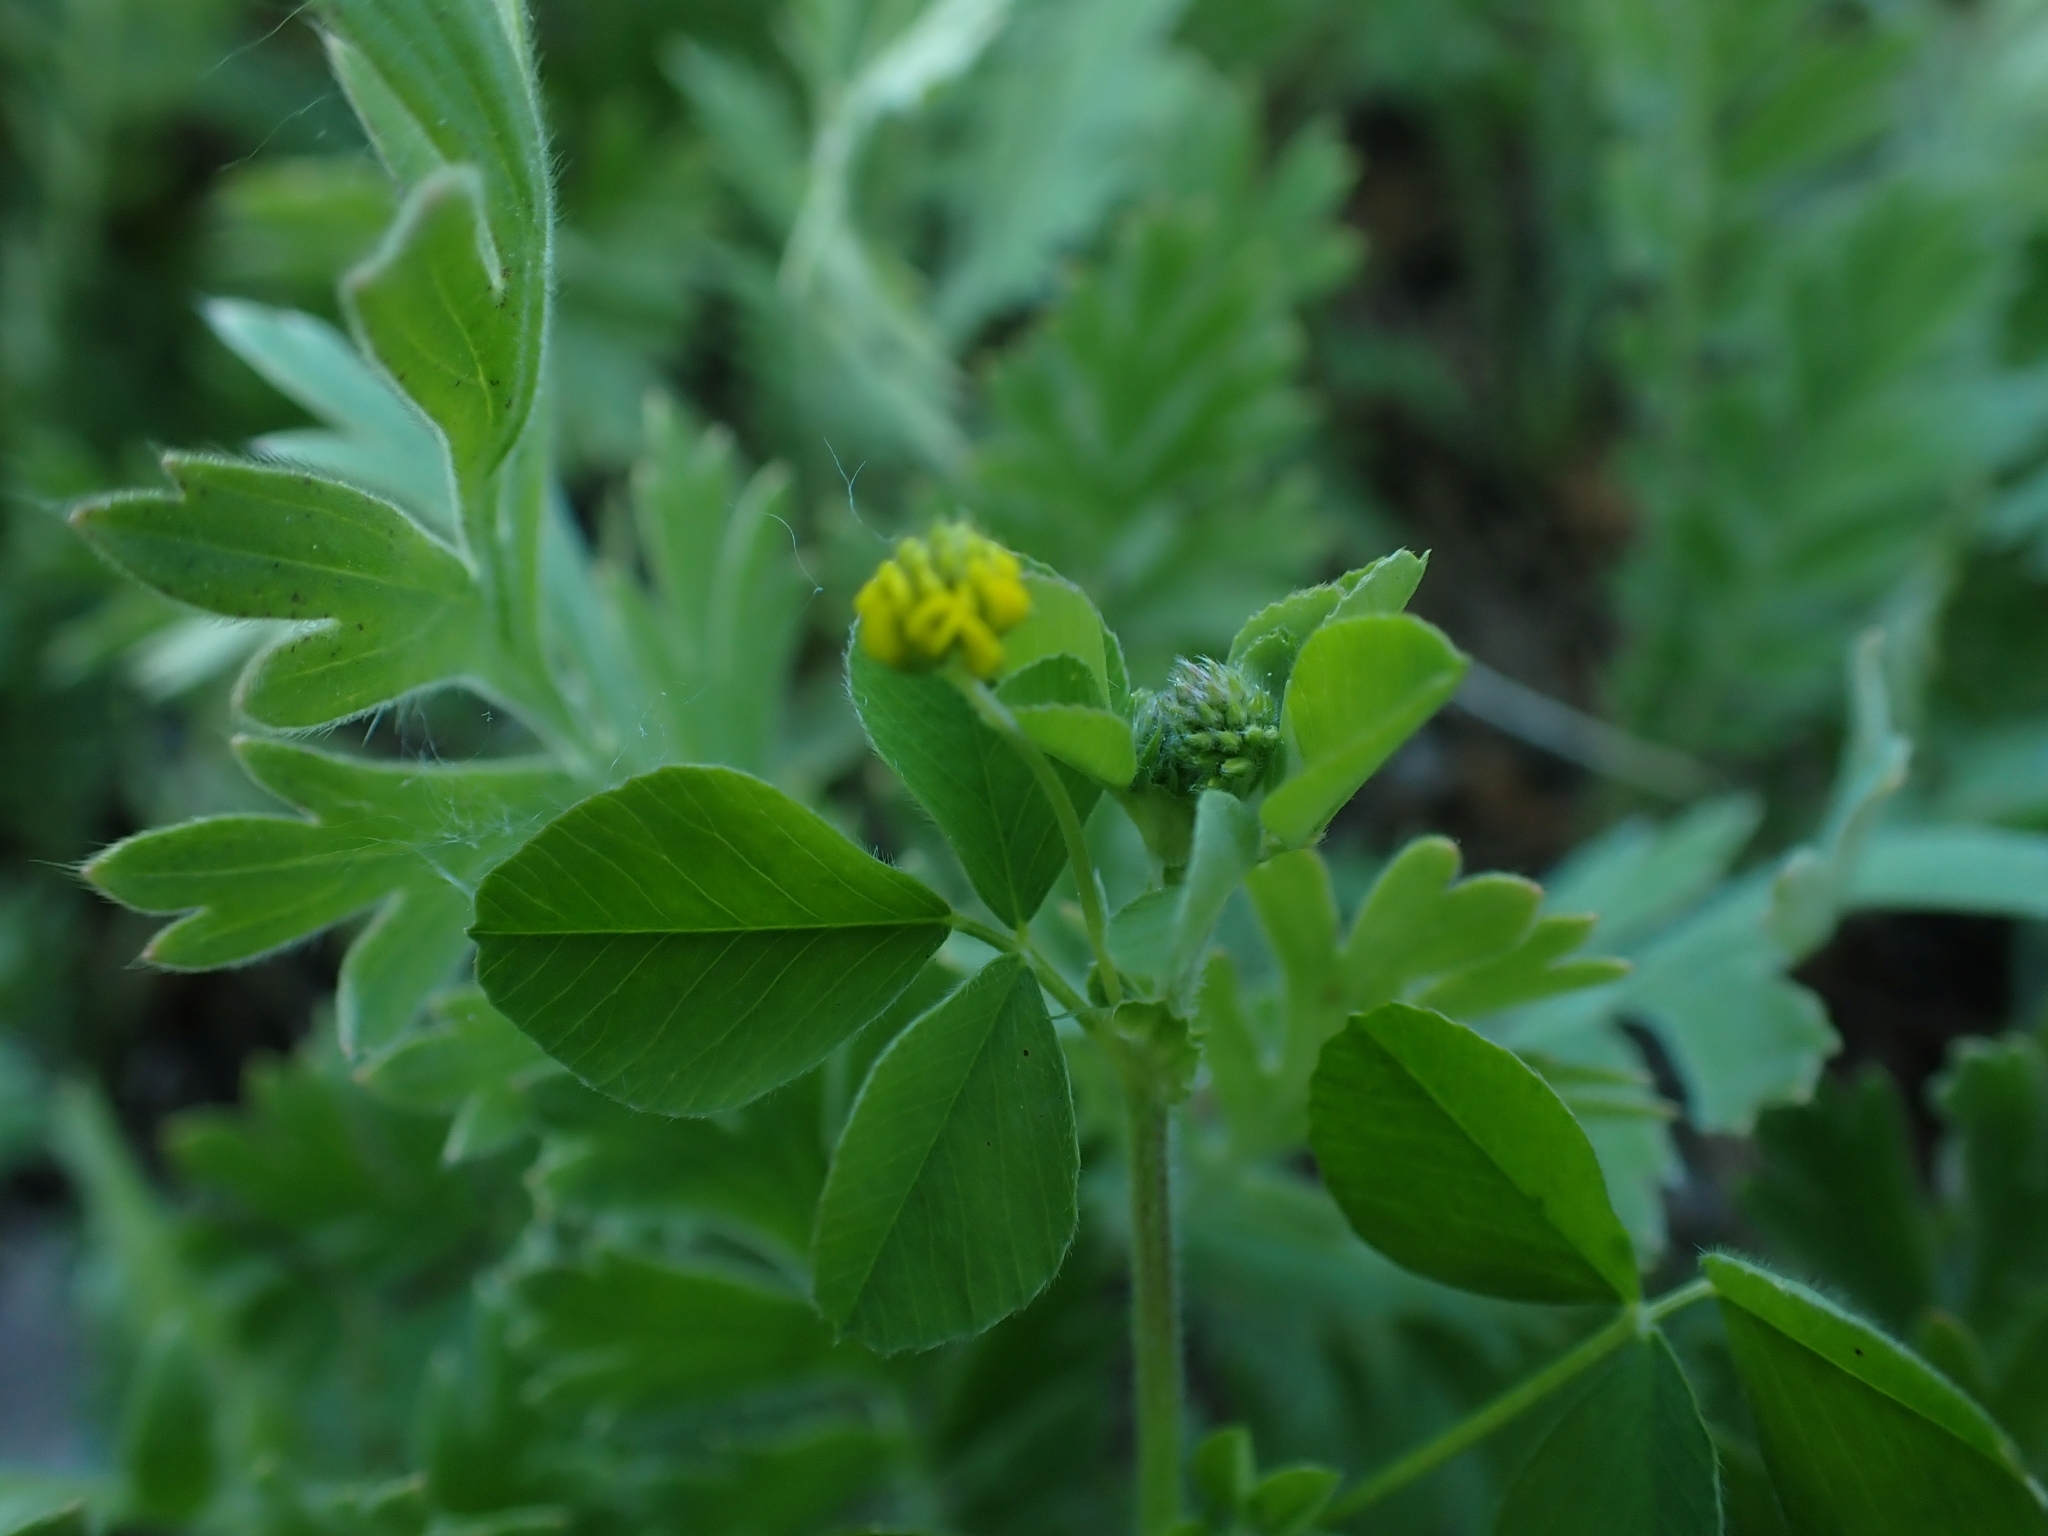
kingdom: Plantae
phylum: Tracheophyta
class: Magnoliopsida
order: Fabales
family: Fabaceae
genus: Medicago
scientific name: Medicago lupulina
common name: Black medick
